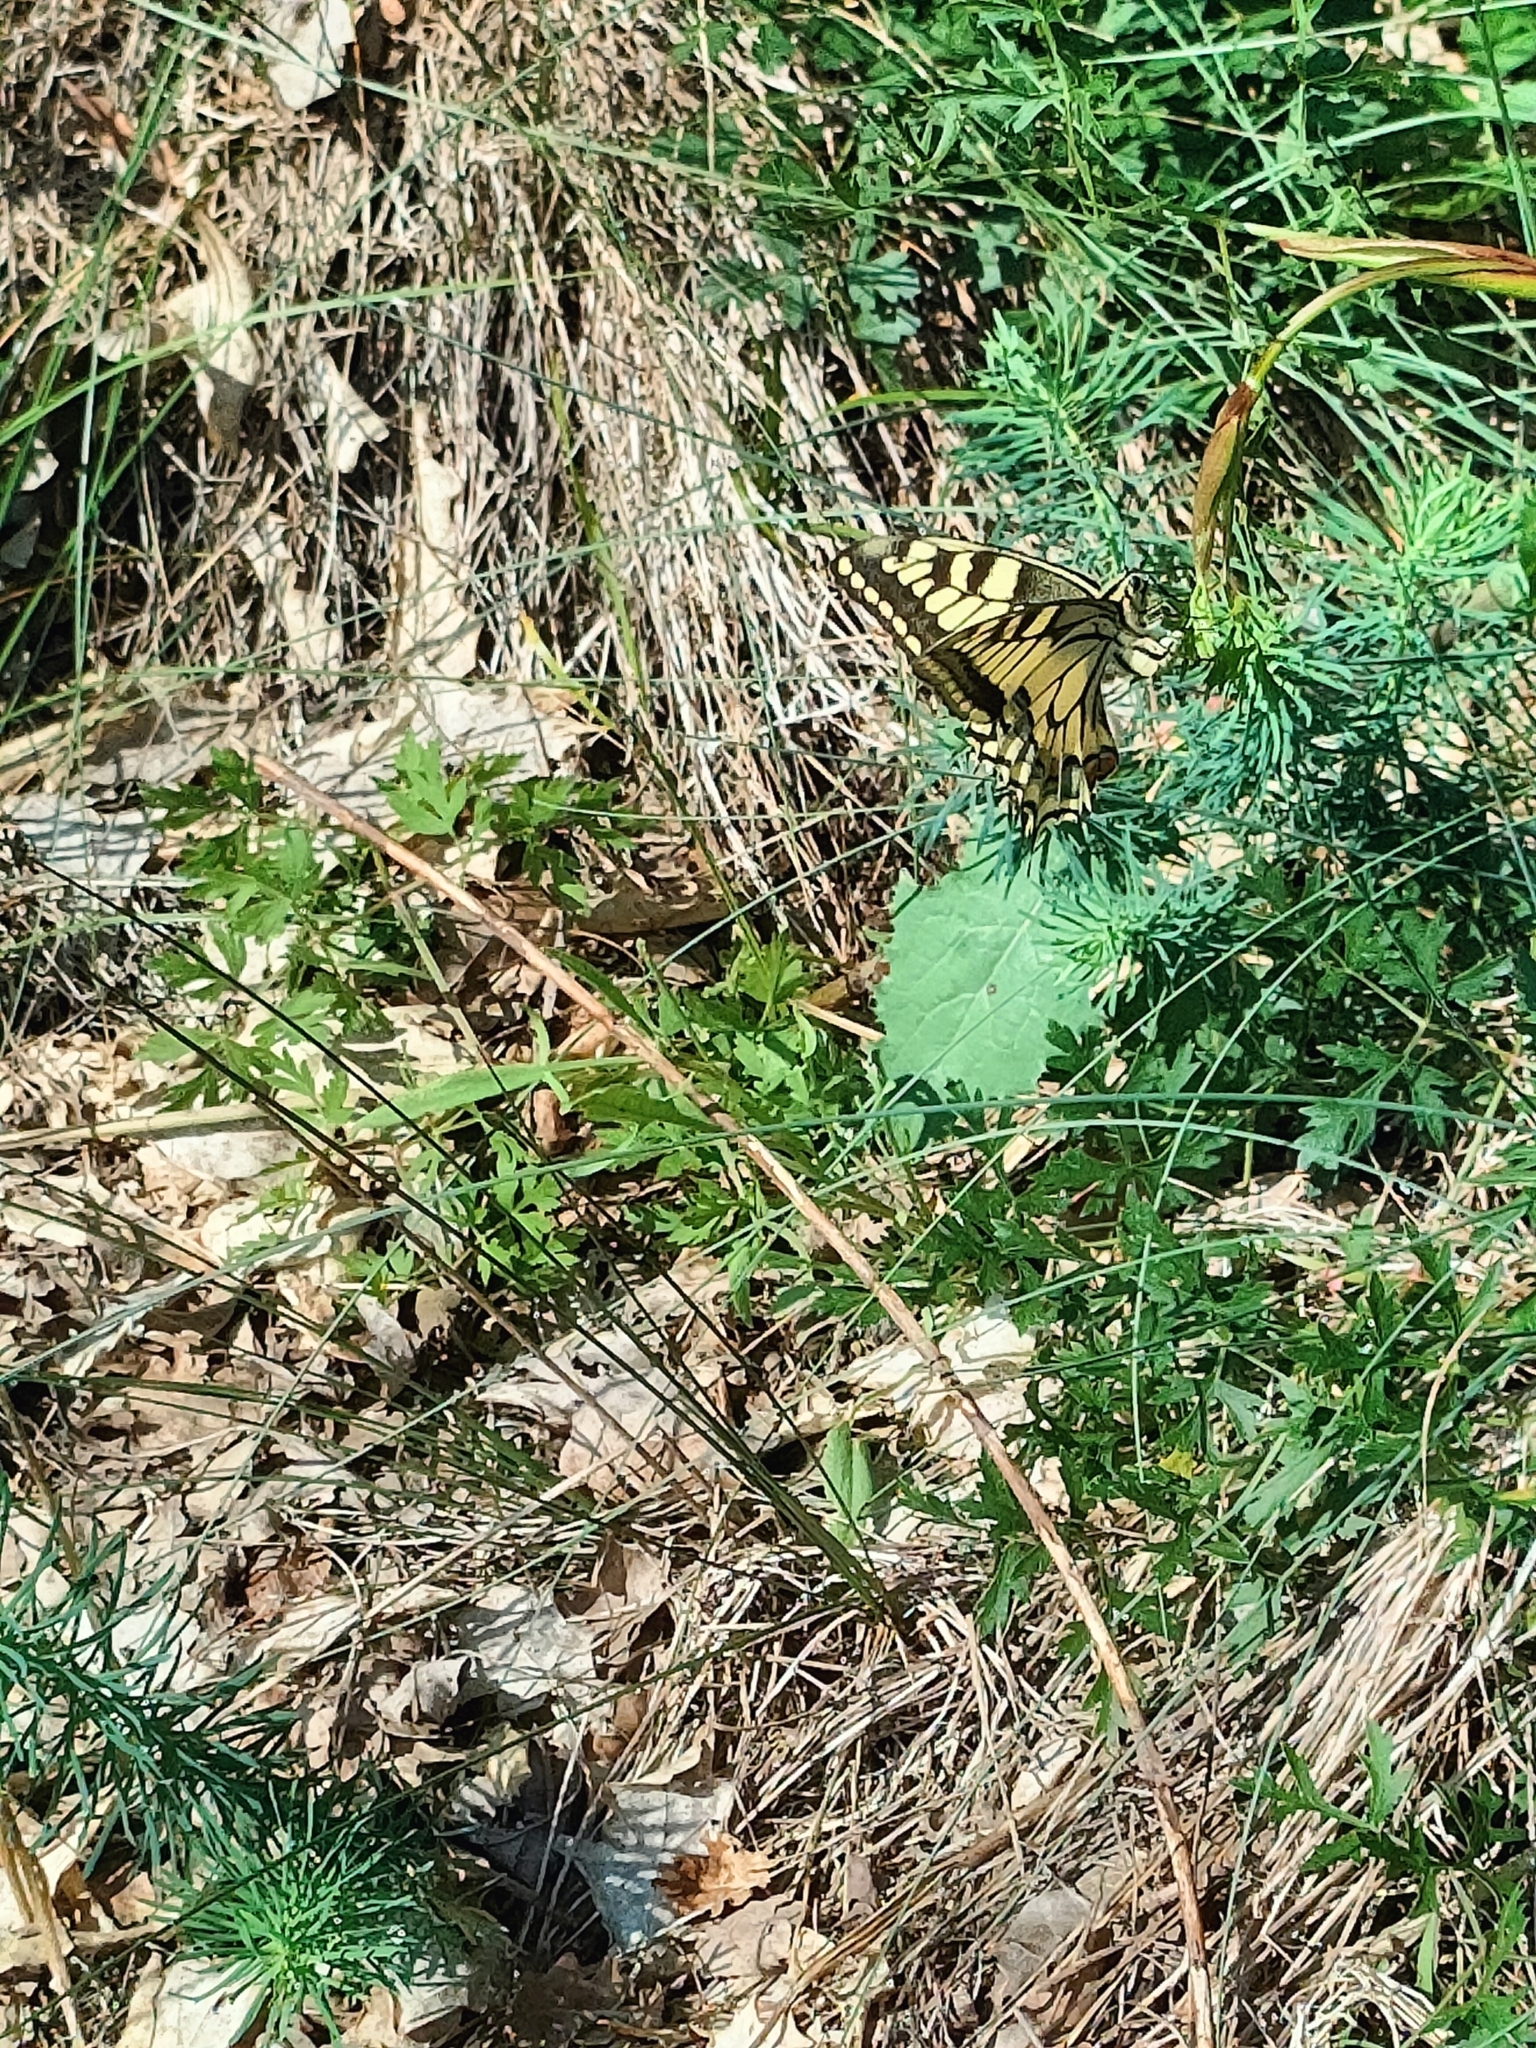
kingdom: Animalia
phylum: Arthropoda
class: Insecta
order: Lepidoptera
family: Papilionidae
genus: Papilio
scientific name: Papilio machaon
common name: Swallowtail
